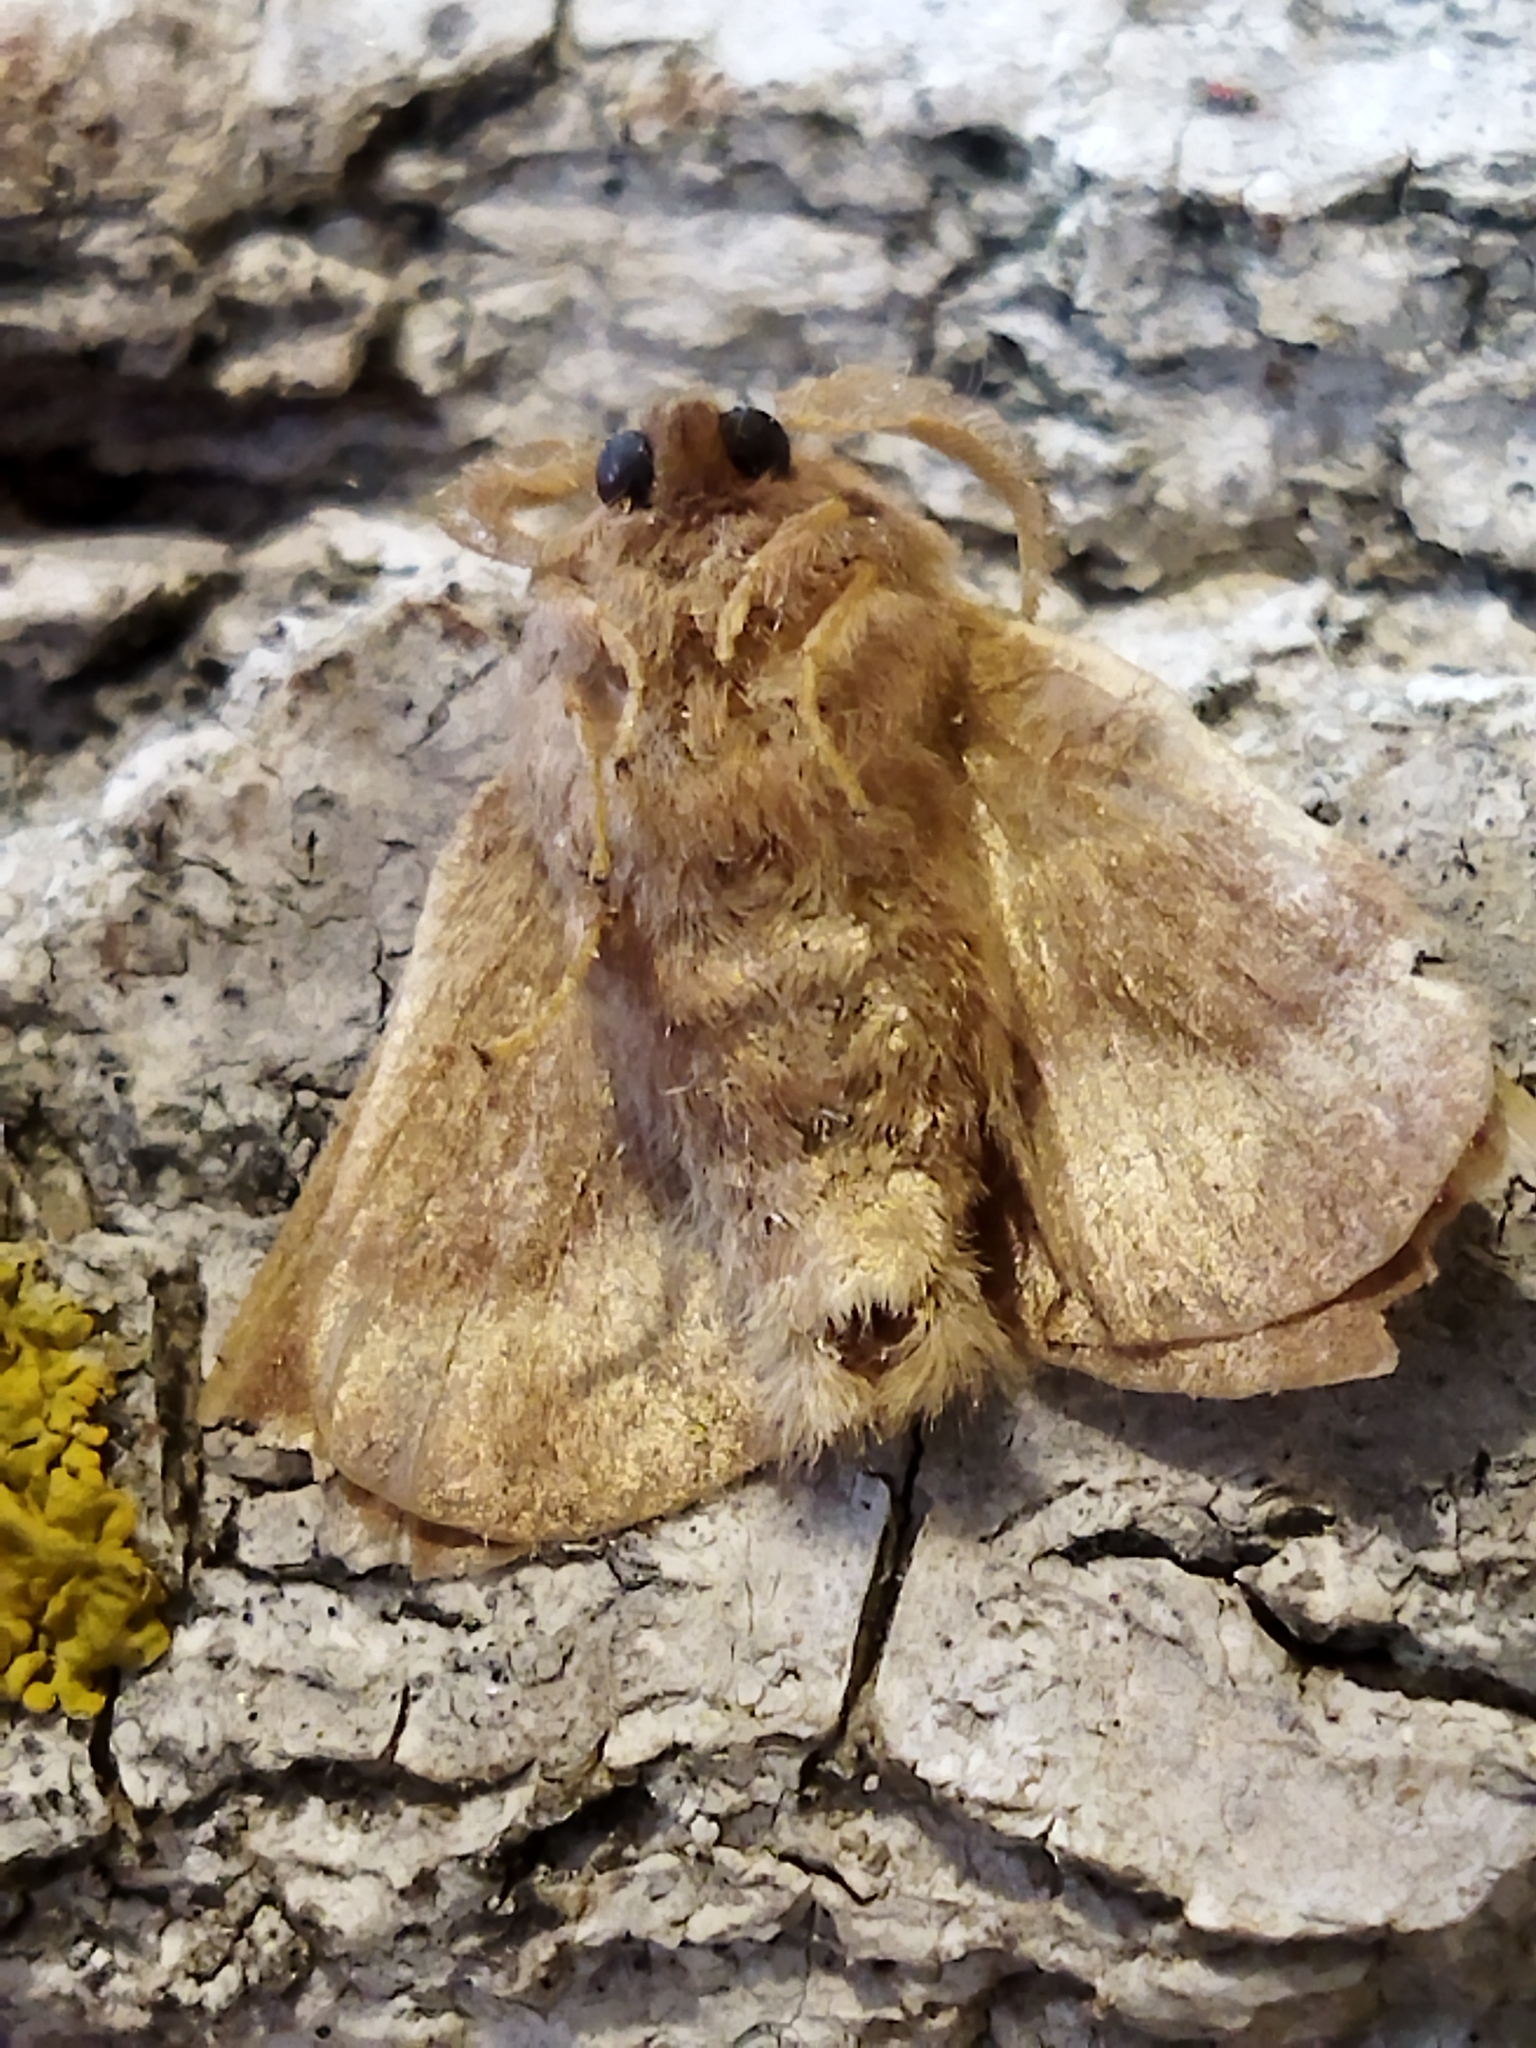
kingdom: Animalia
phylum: Arthropoda
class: Insecta
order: Lepidoptera
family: Lasiocampidae
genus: Malacosoma
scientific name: Malacosoma neustria
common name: The lackey
